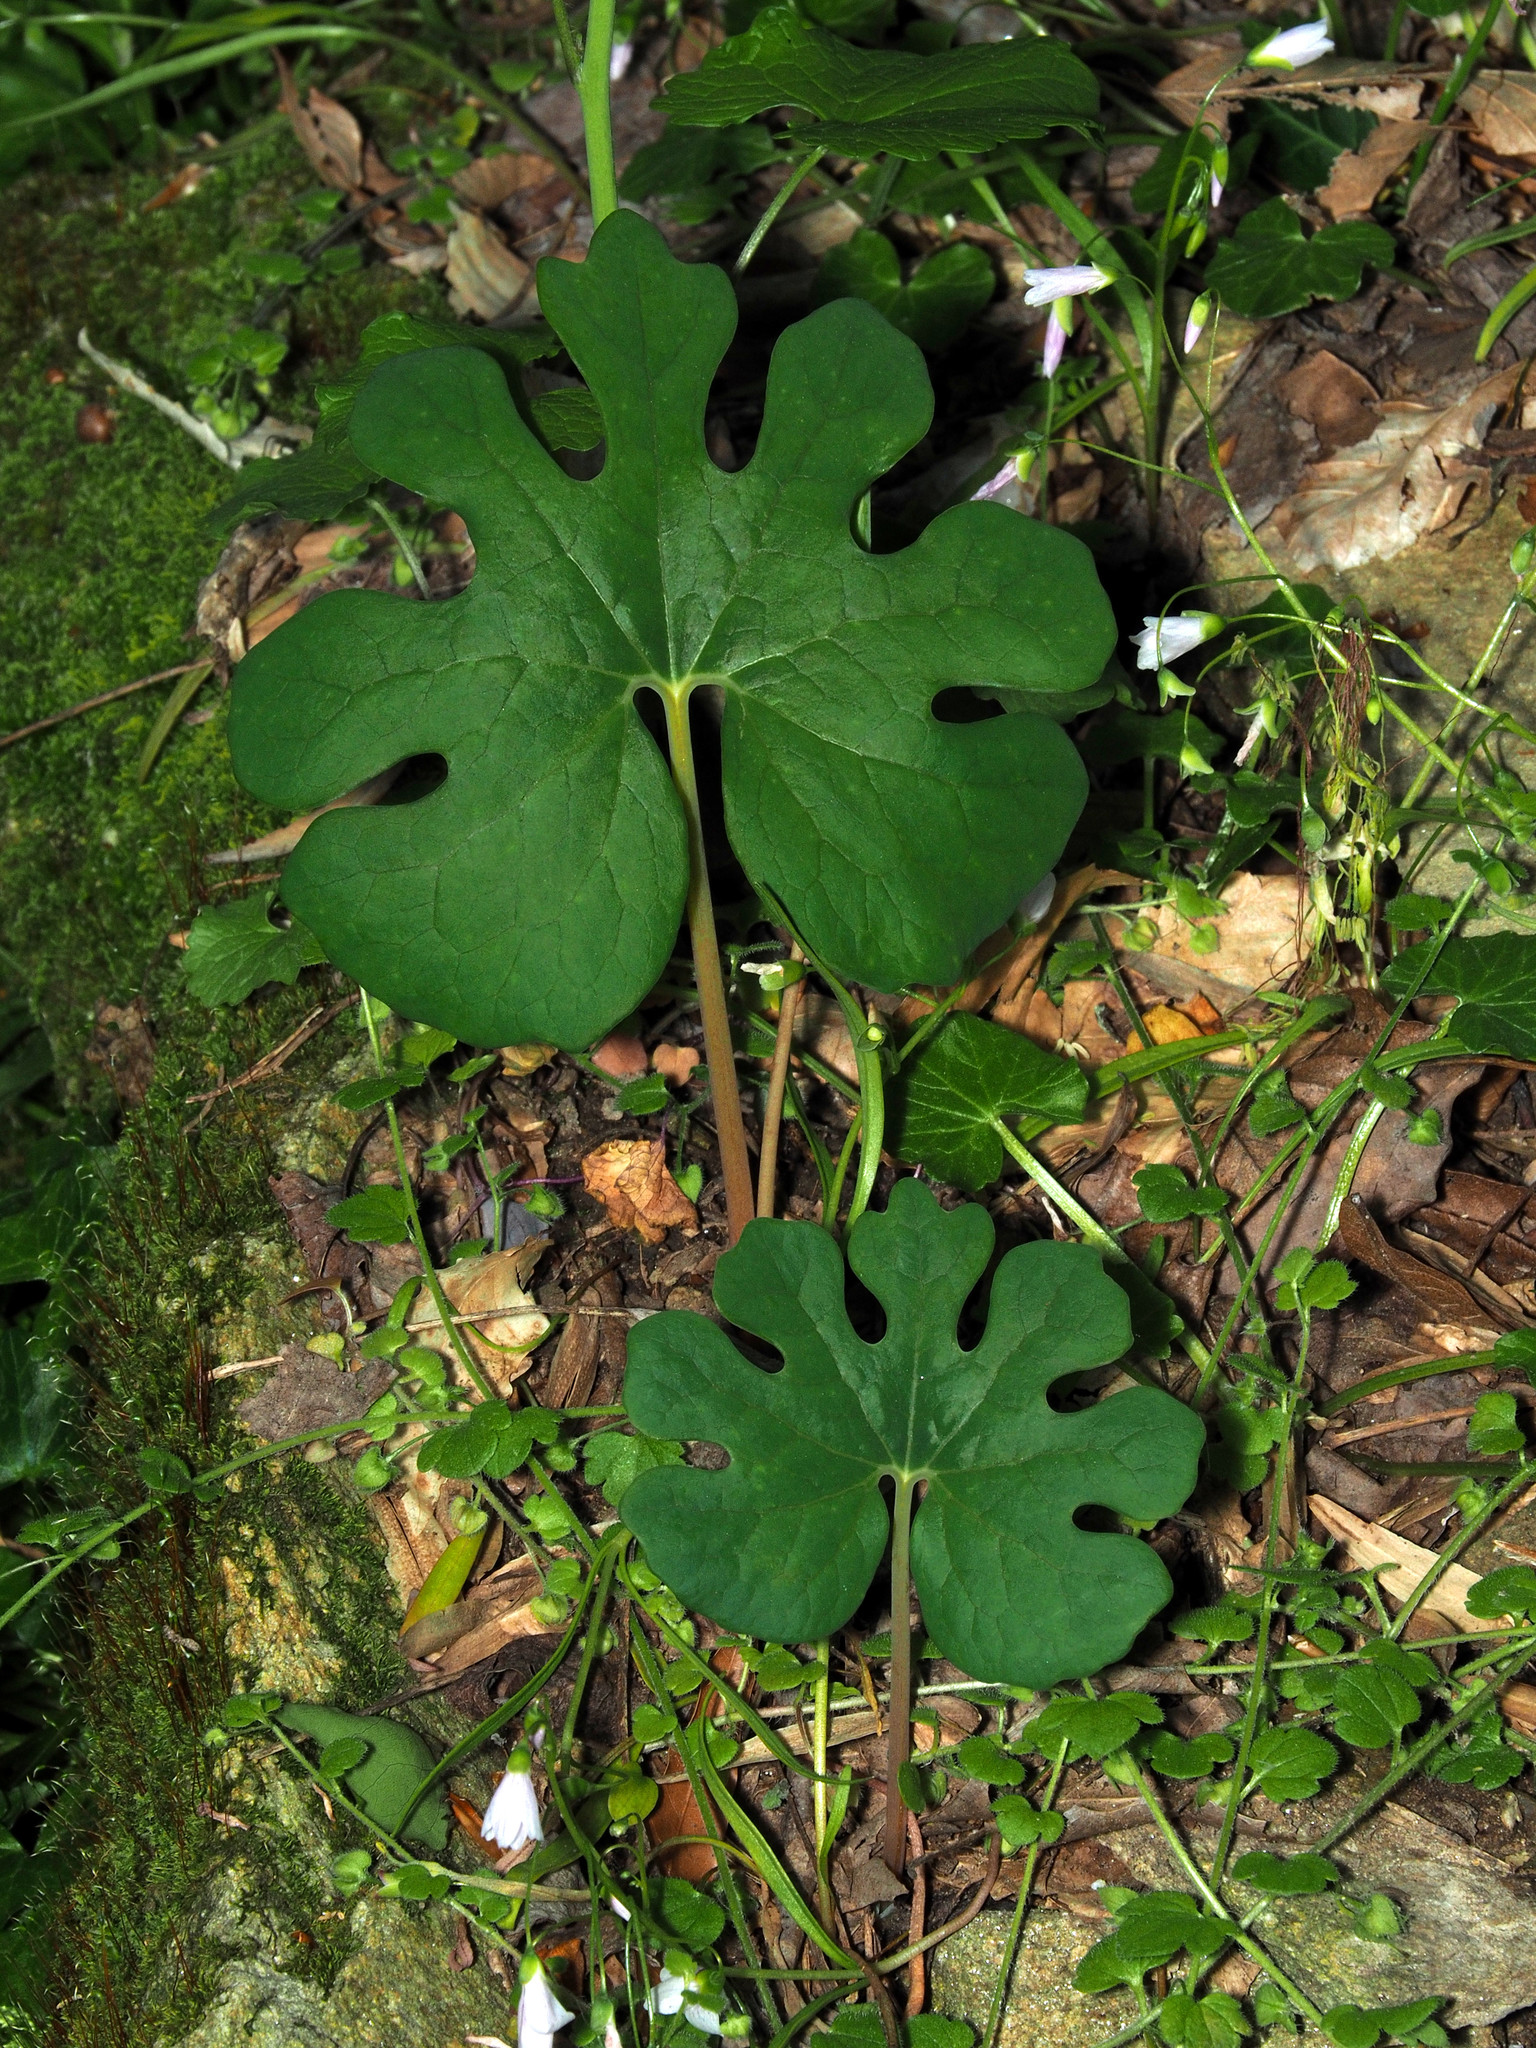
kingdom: Plantae
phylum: Tracheophyta
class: Magnoliopsida
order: Ranunculales
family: Papaveraceae
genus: Sanguinaria
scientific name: Sanguinaria canadensis
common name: Bloodroot
